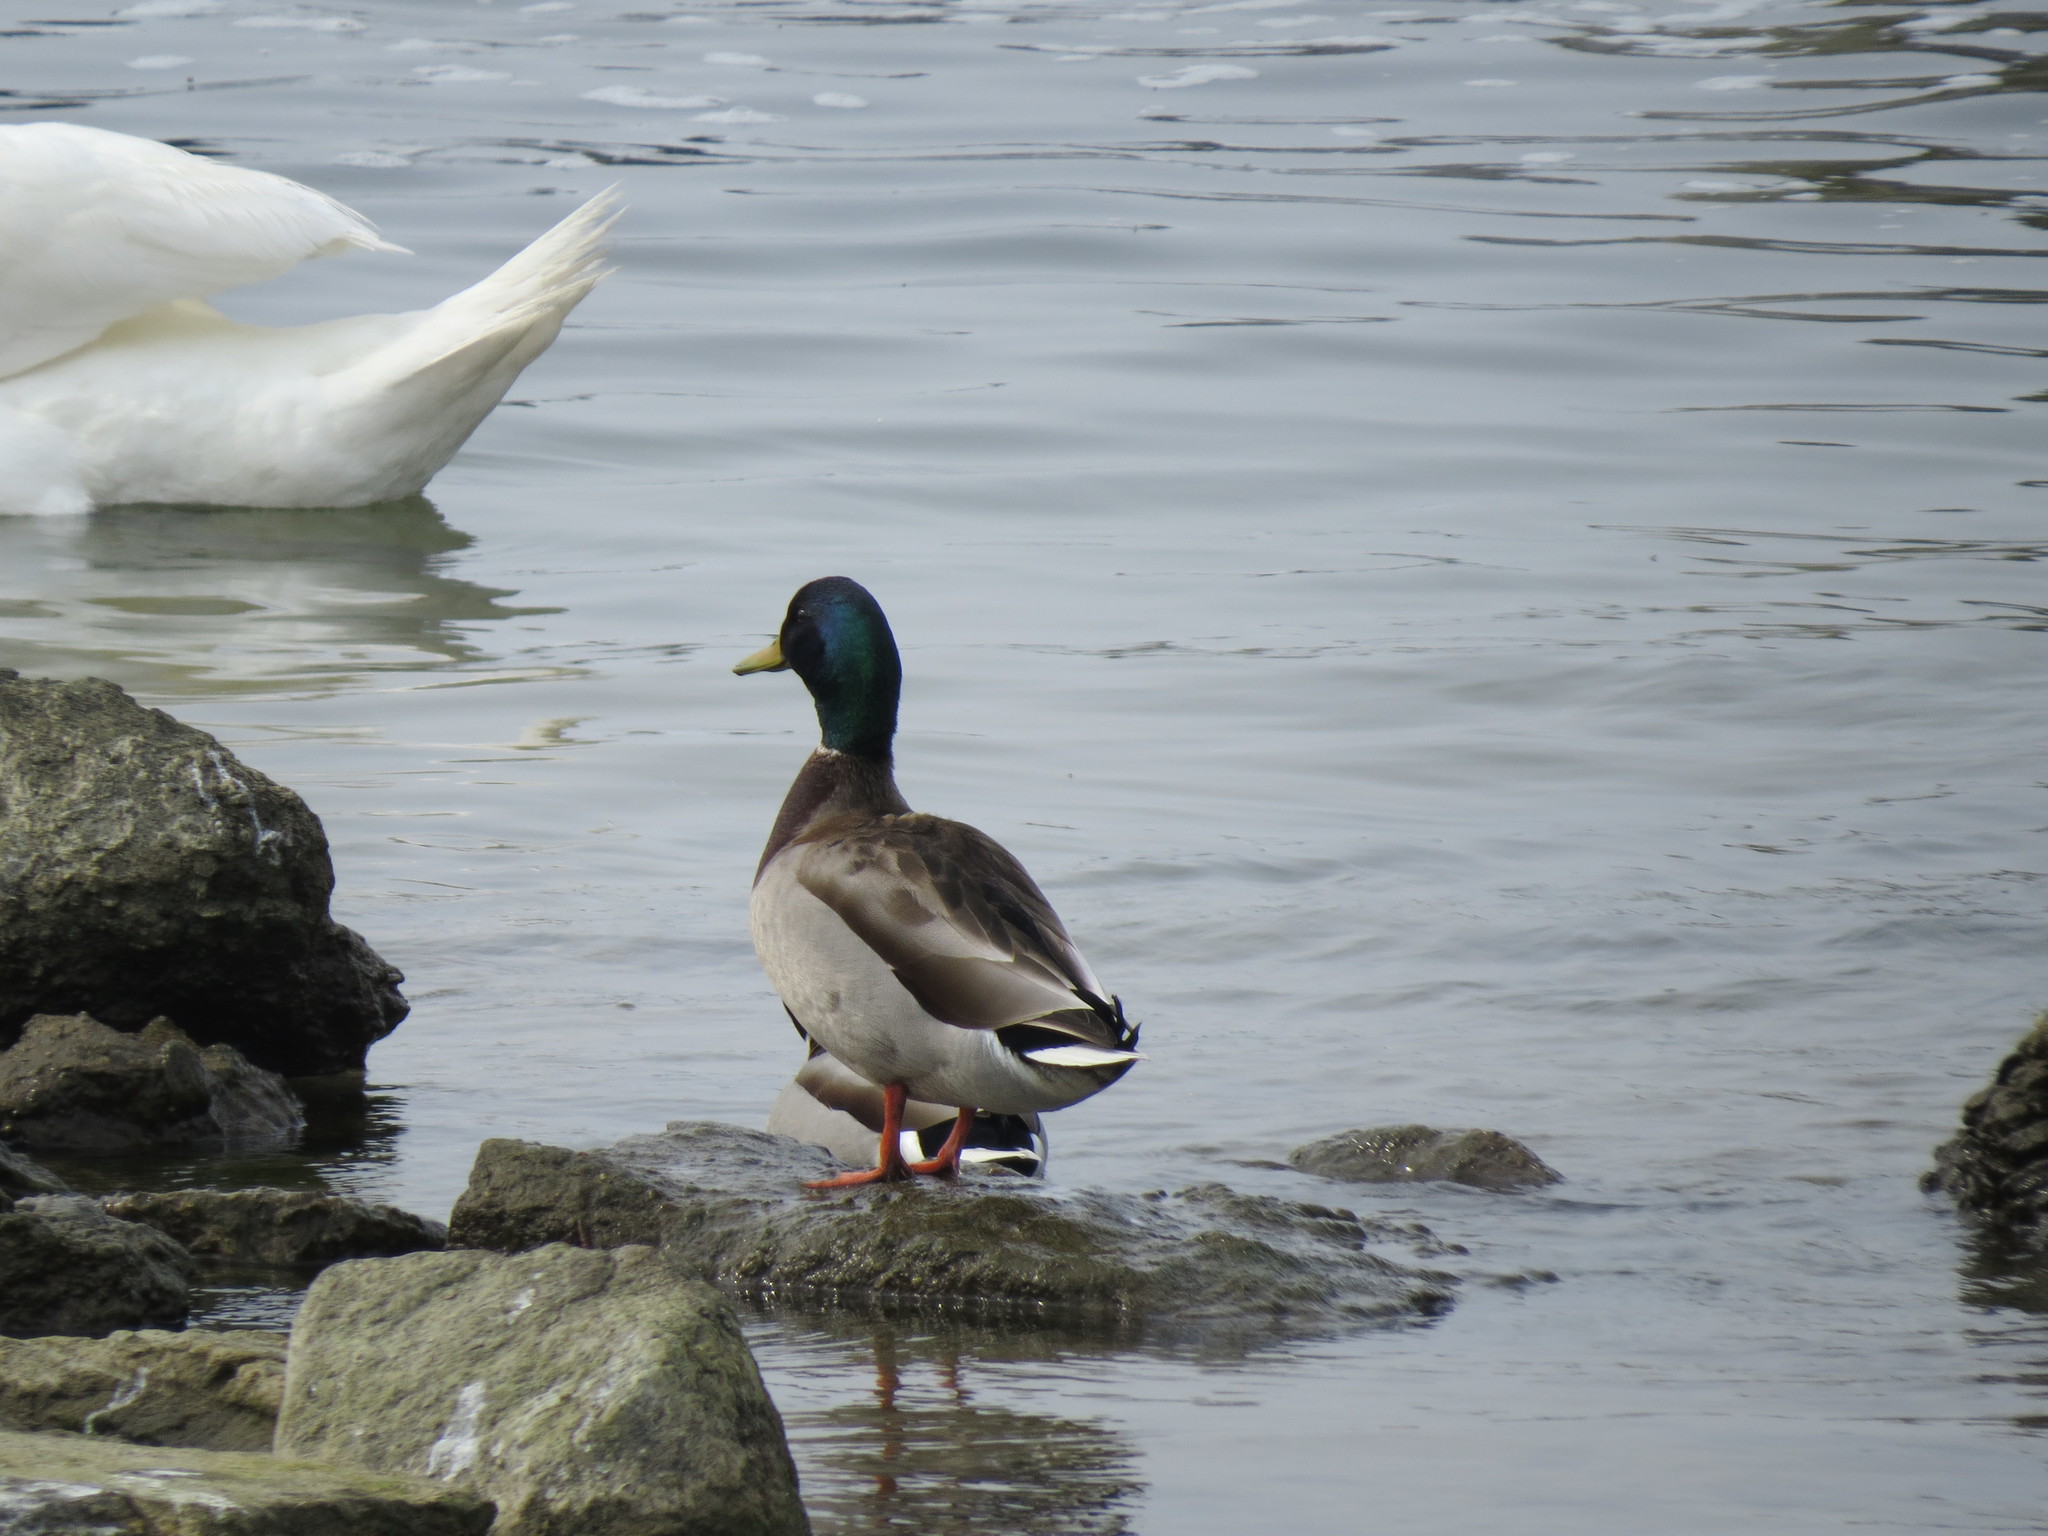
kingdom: Animalia
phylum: Chordata
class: Aves
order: Anseriformes
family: Anatidae
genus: Anas
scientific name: Anas platyrhynchos
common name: Mallard
